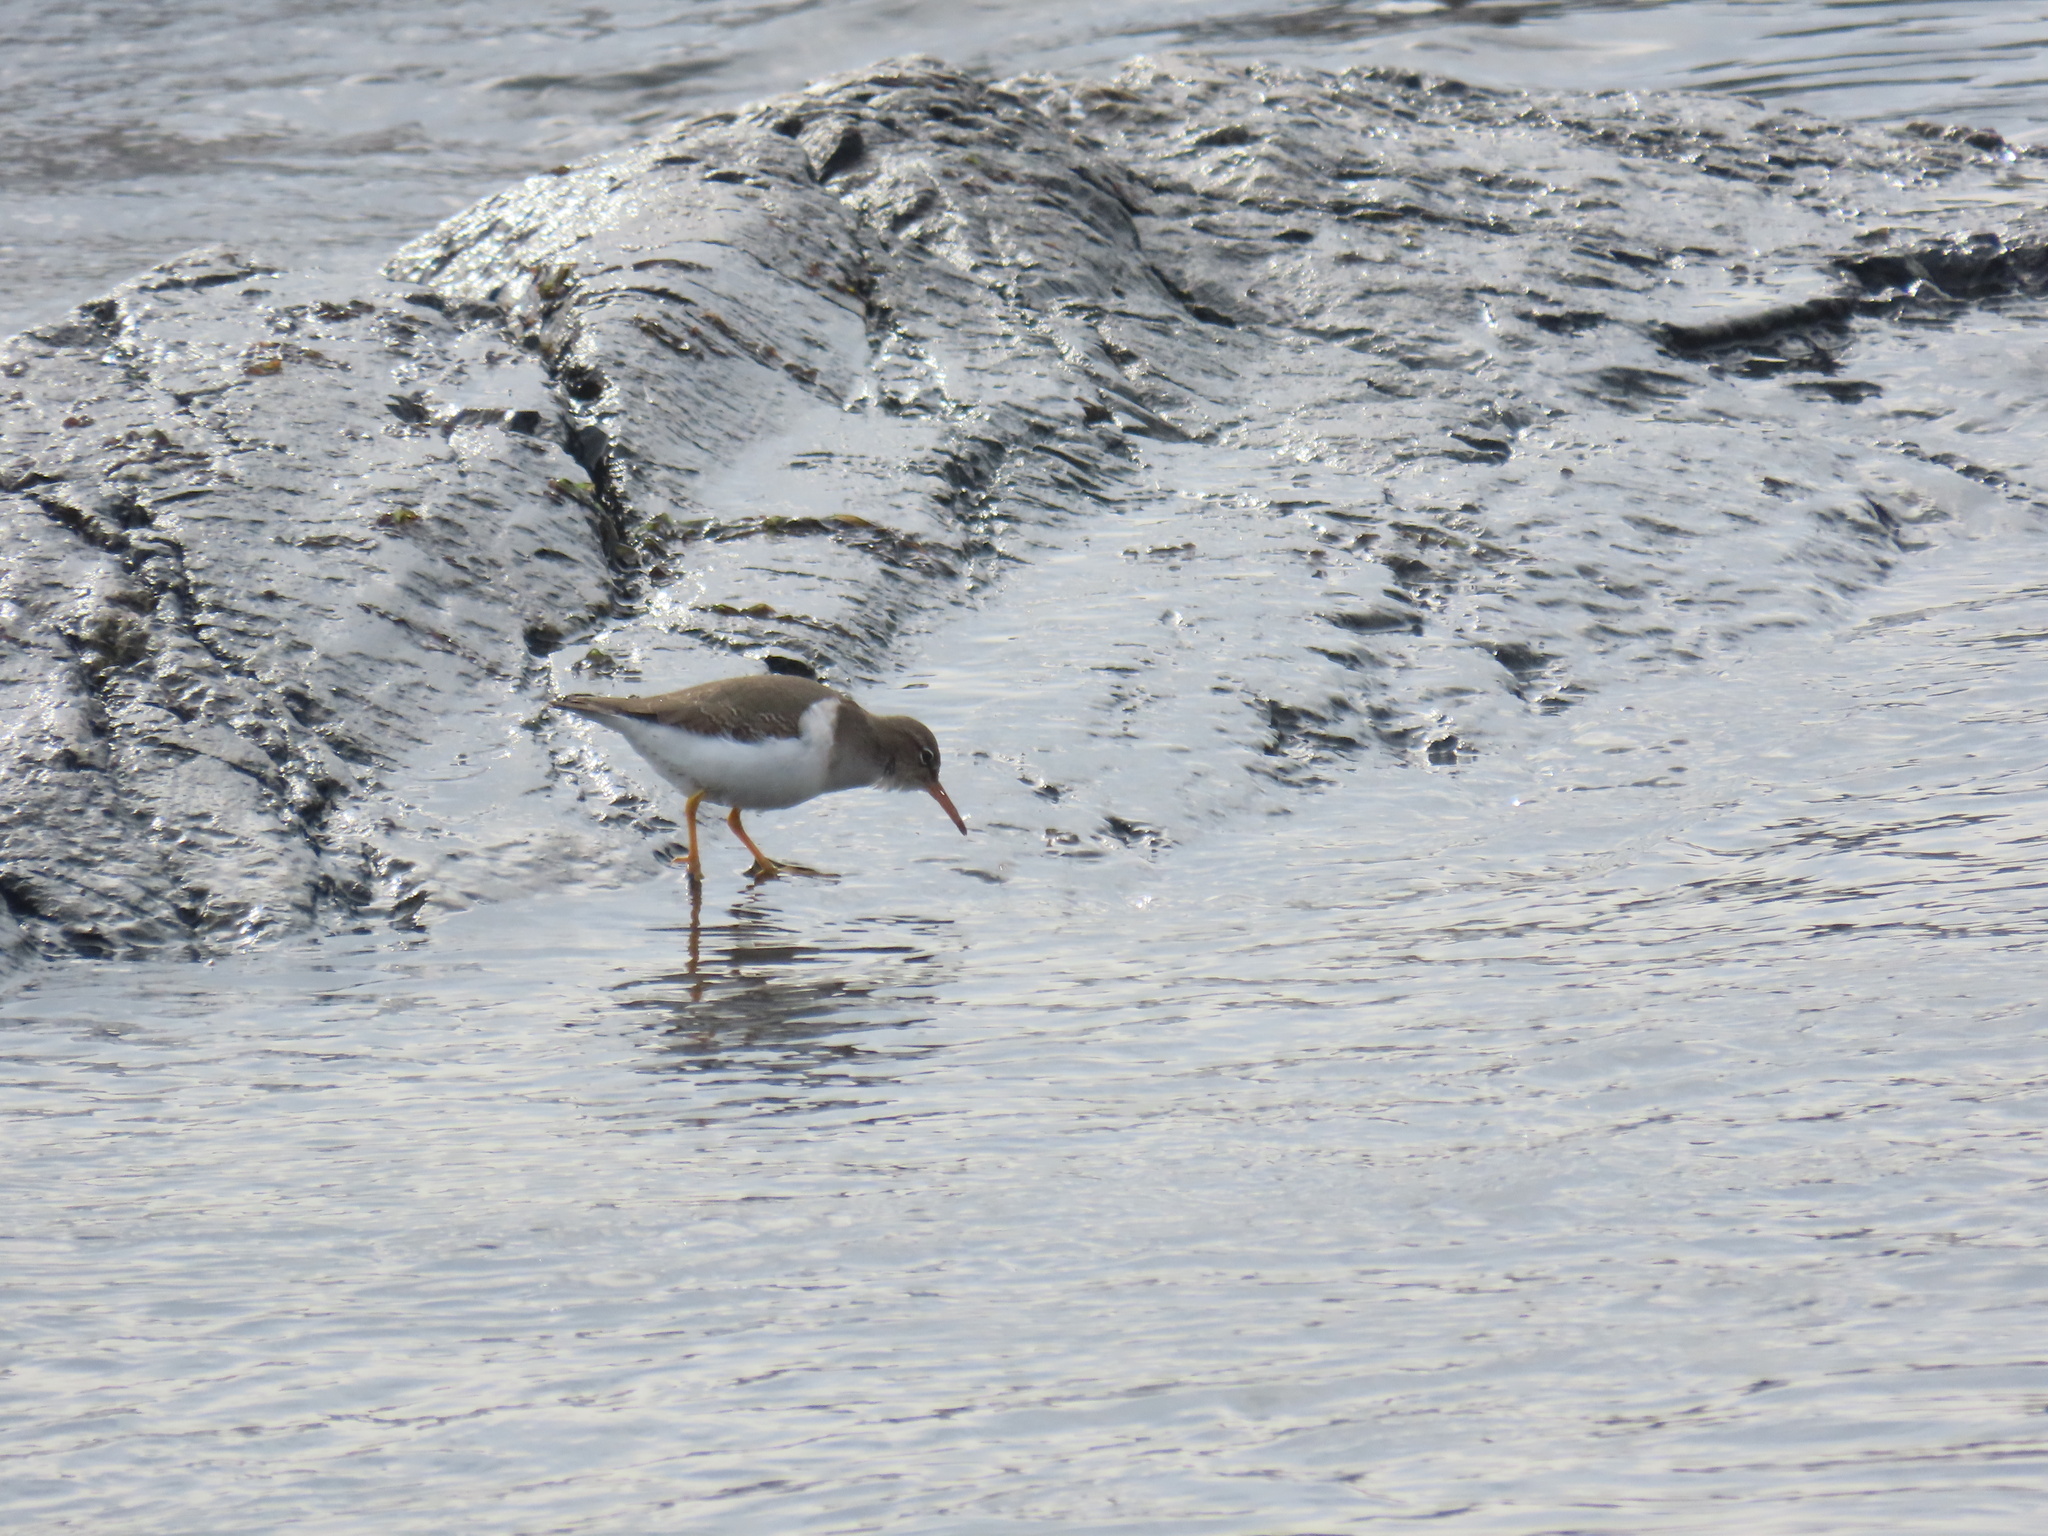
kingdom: Animalia
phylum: Chordata
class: Aves
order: Charadriiformes
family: Scolopacidae
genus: Actitis
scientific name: Actitis macularius
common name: Spotted sandpiper
